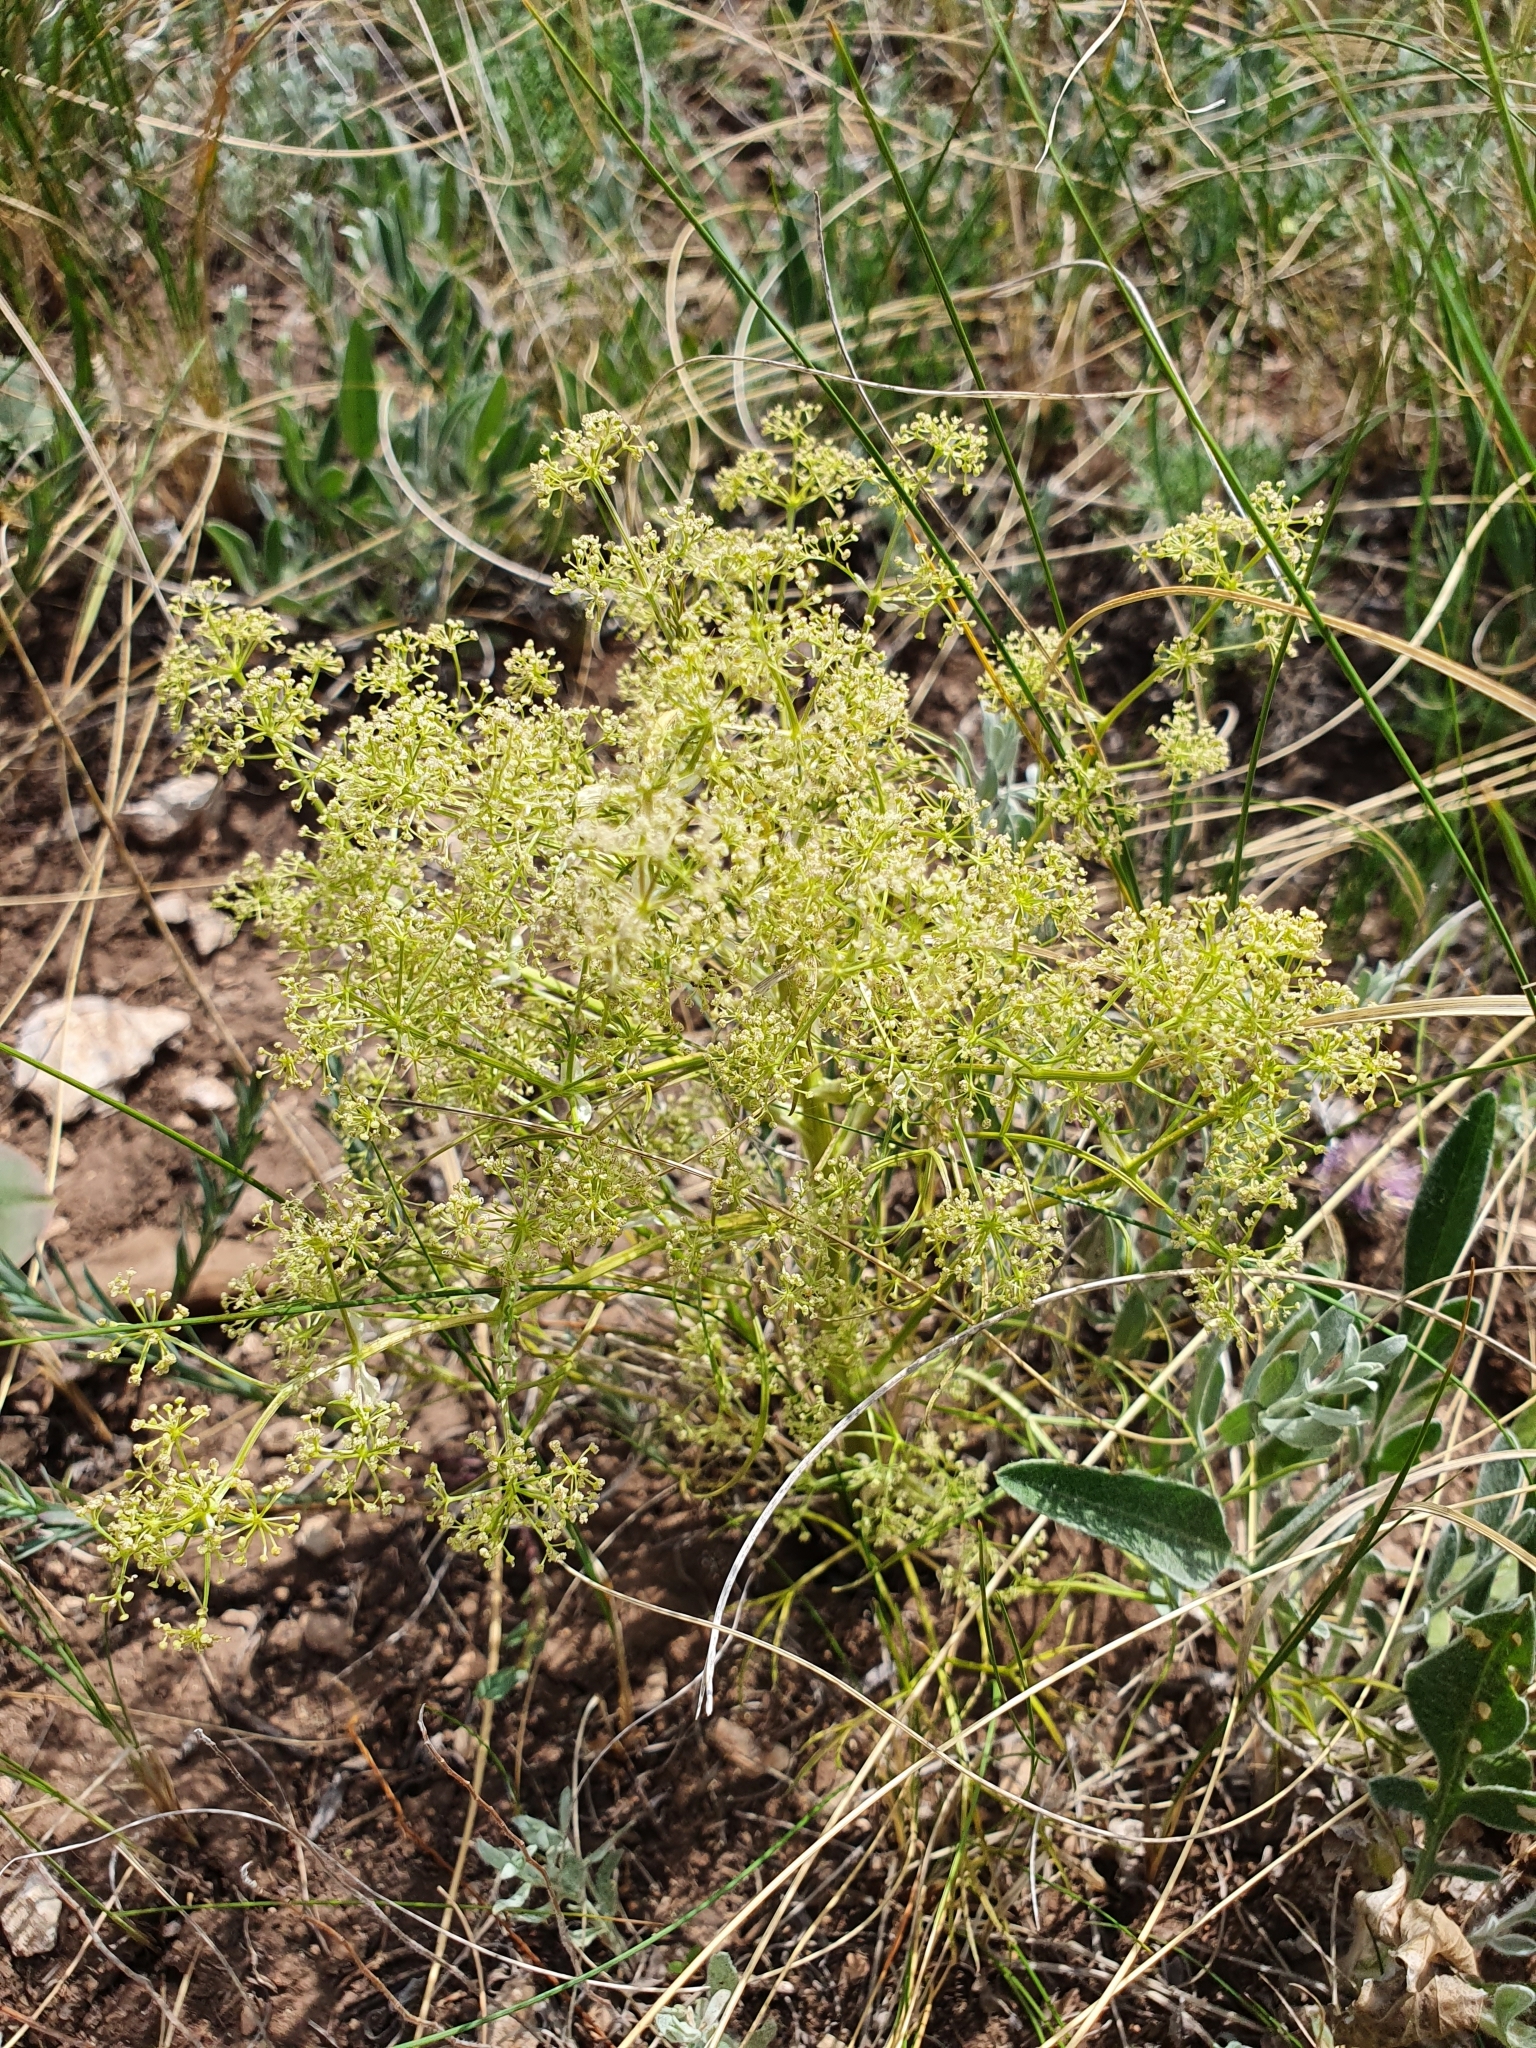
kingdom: Plantae
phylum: Tracheophyta
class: Magnoliopsida
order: Apiales
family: Apiaceae
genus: Trinia
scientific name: Trinia multicaulis
